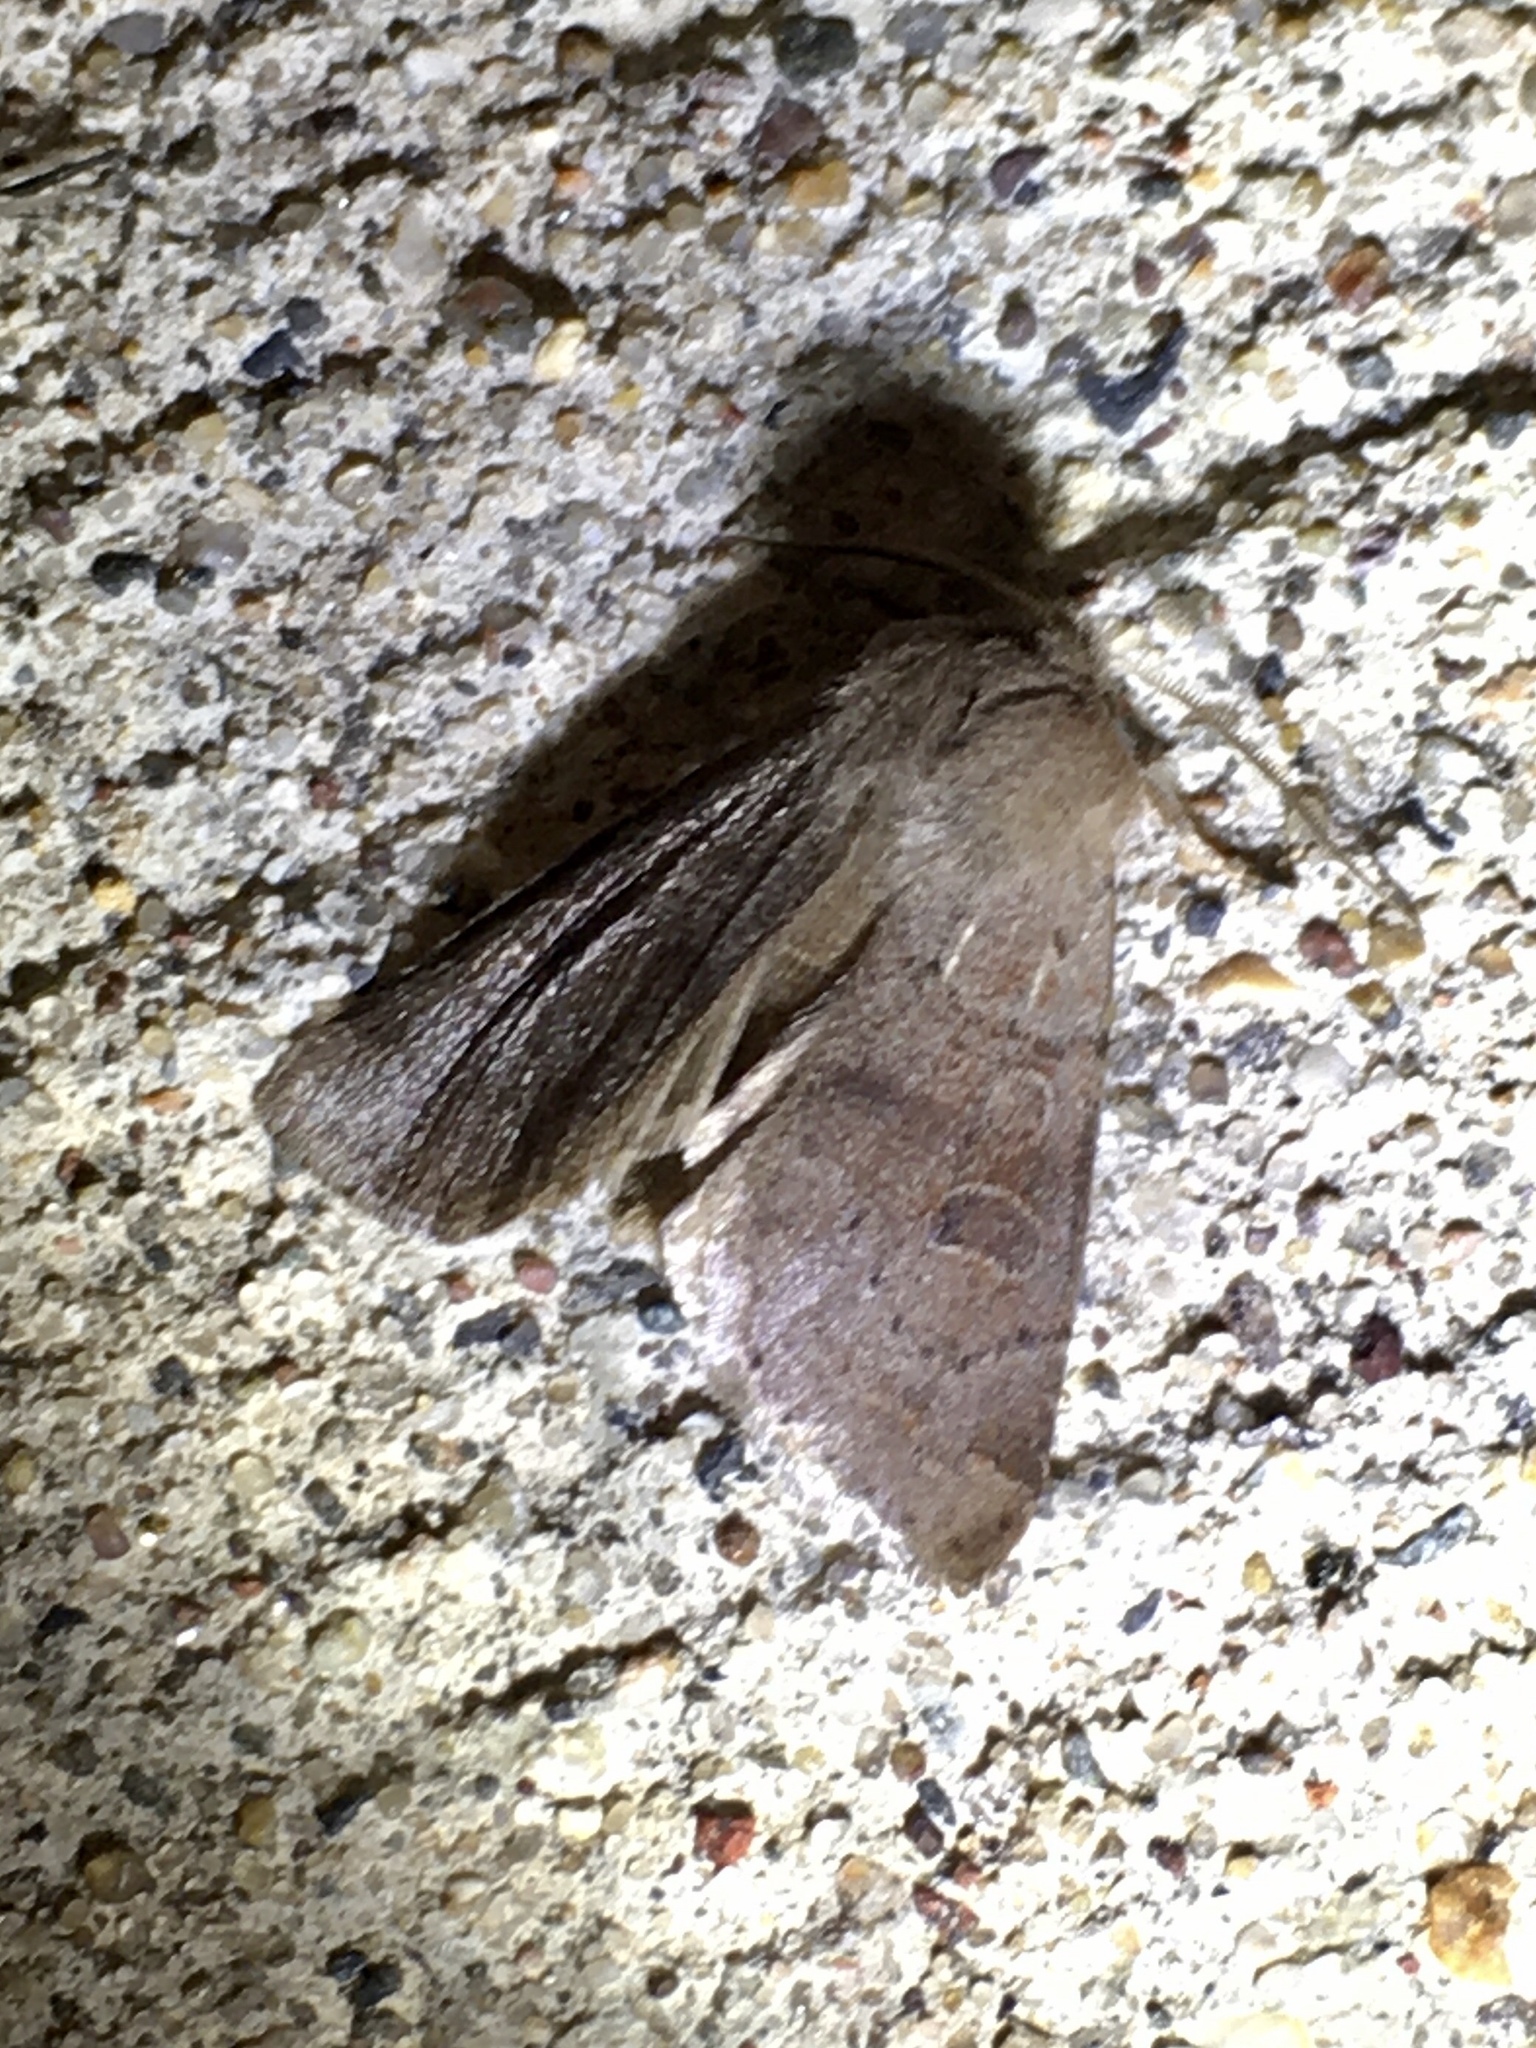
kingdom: Animalia
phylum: Arthropoda
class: Insecta
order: Lepidoptera
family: Noctuidae
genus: Orthosia
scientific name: Orthosia hibisci
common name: Green fruitworm
